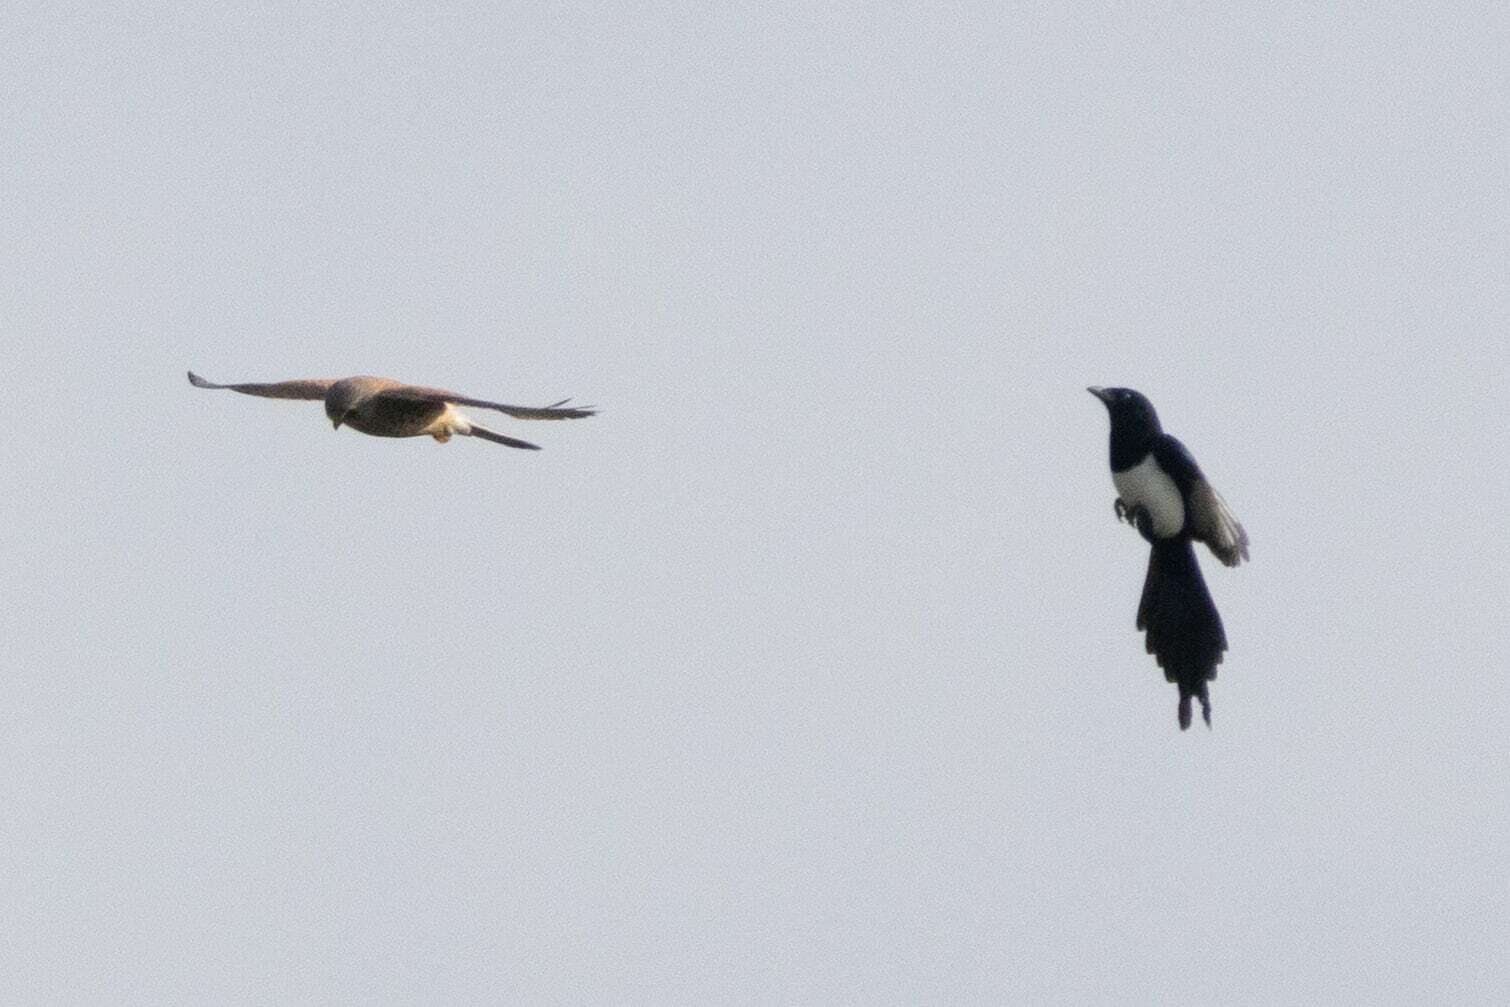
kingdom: Animalia
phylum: Chordata
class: Aves
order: Falconiformes
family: Falconidae
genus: Falco
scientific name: Falco tinnunculus
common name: Common kestrel
